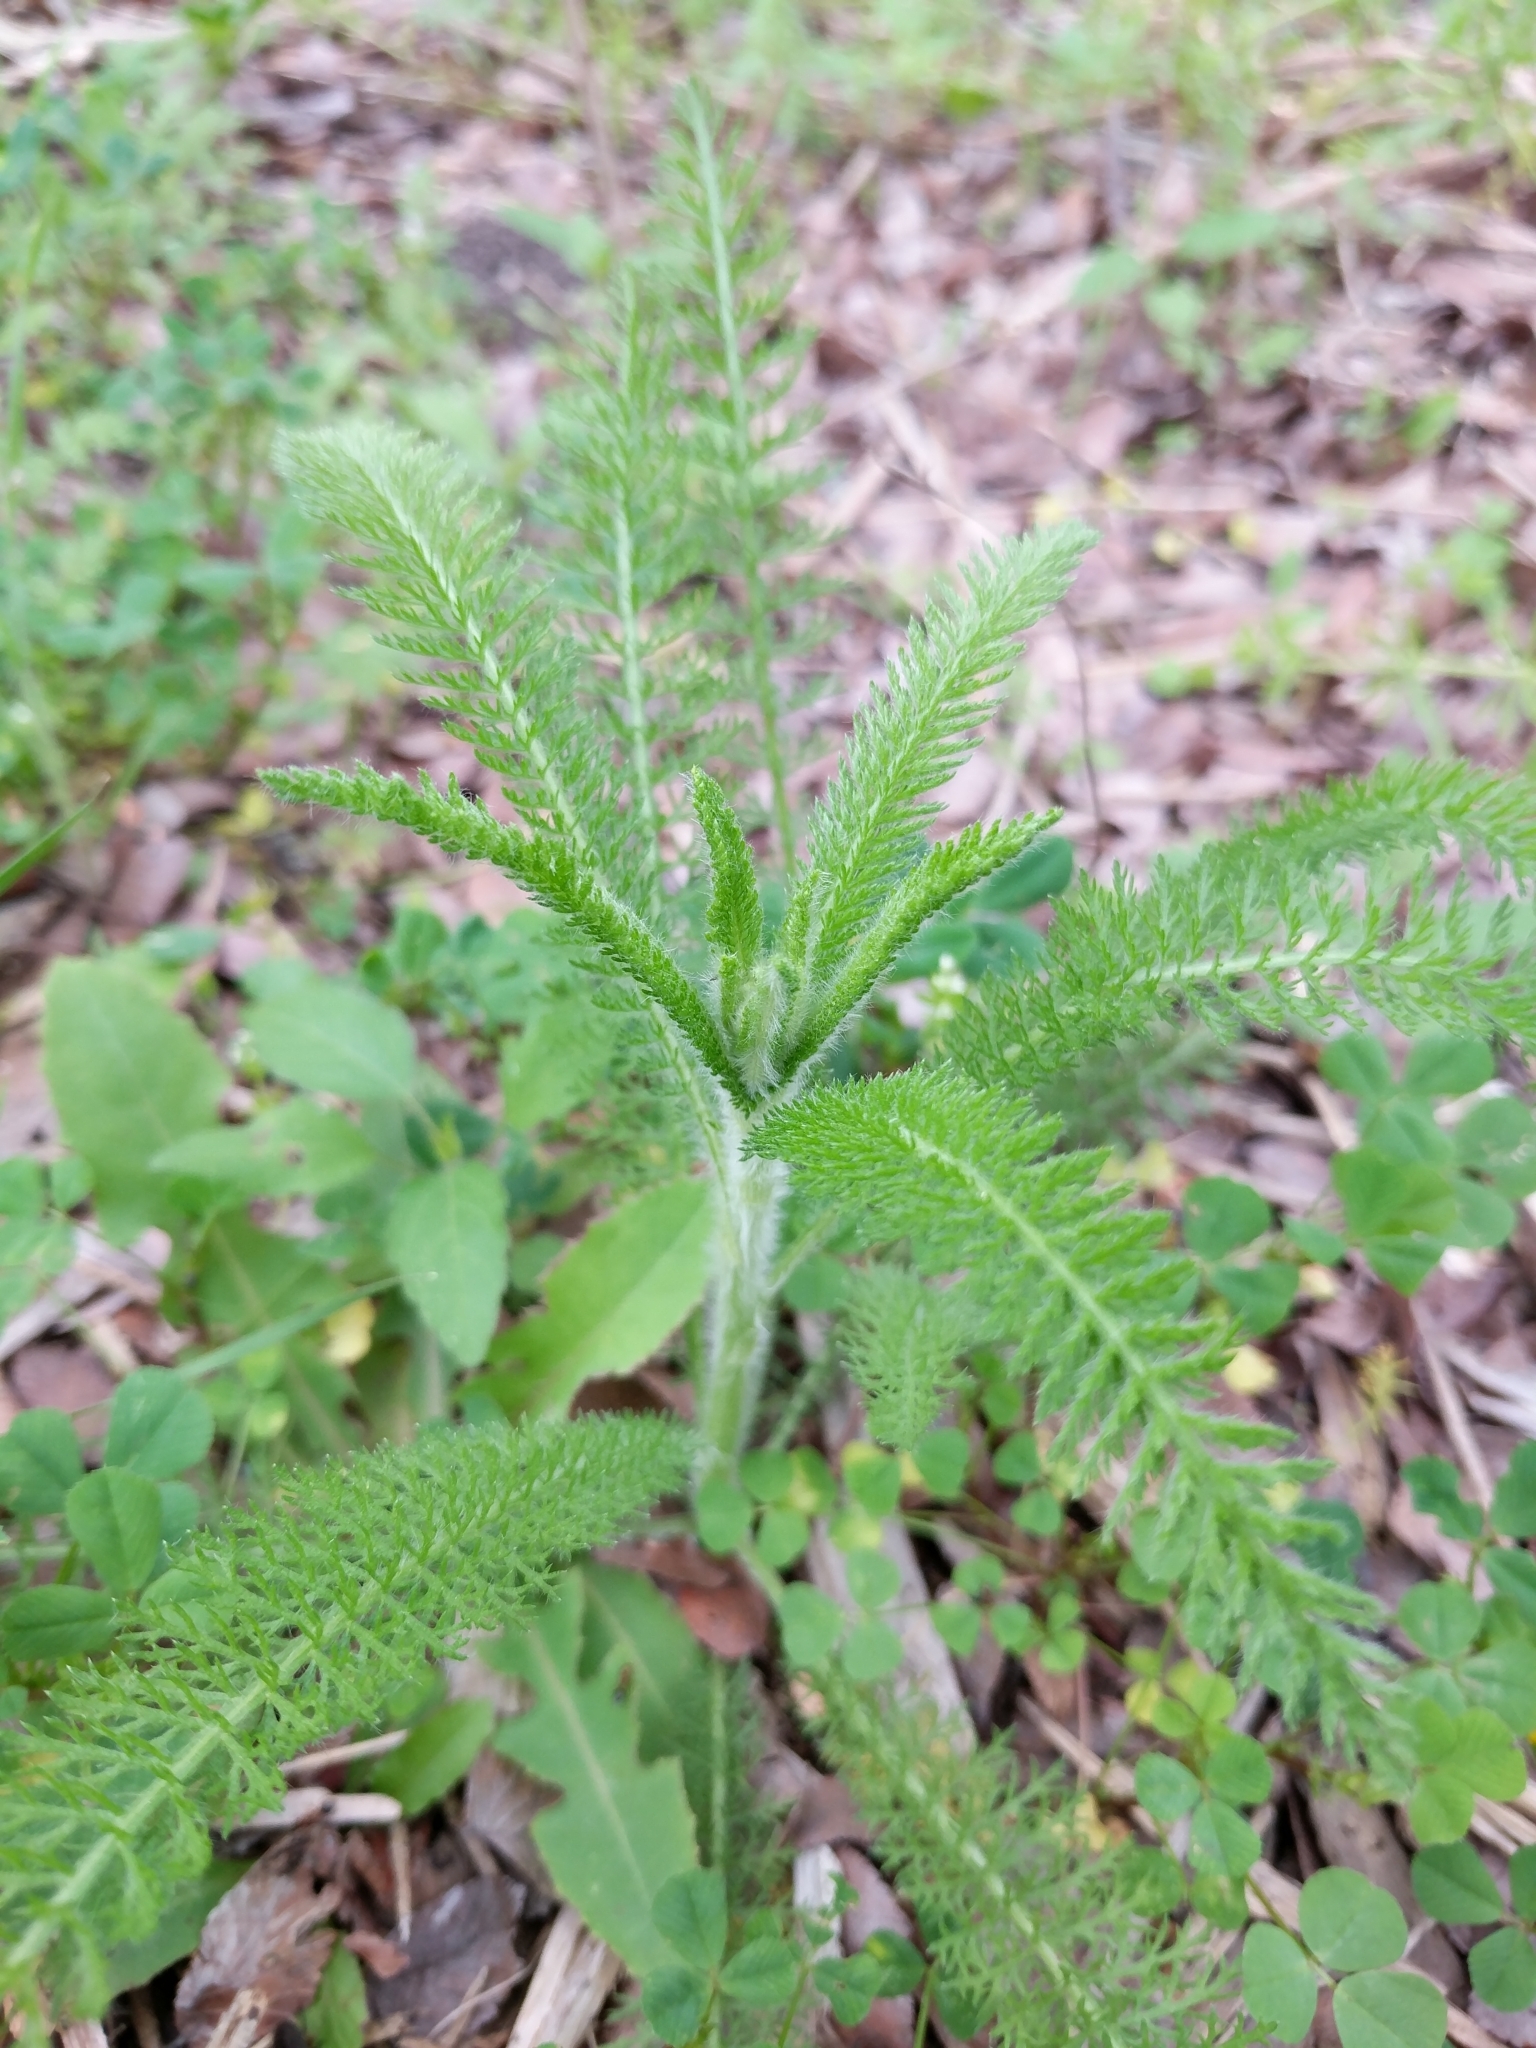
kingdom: Plantae
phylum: Tracheophyta
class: Magnoliopsida
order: Asterales
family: Asteraceae
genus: Achillea
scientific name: Achillea millefolium
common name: Yarrow
